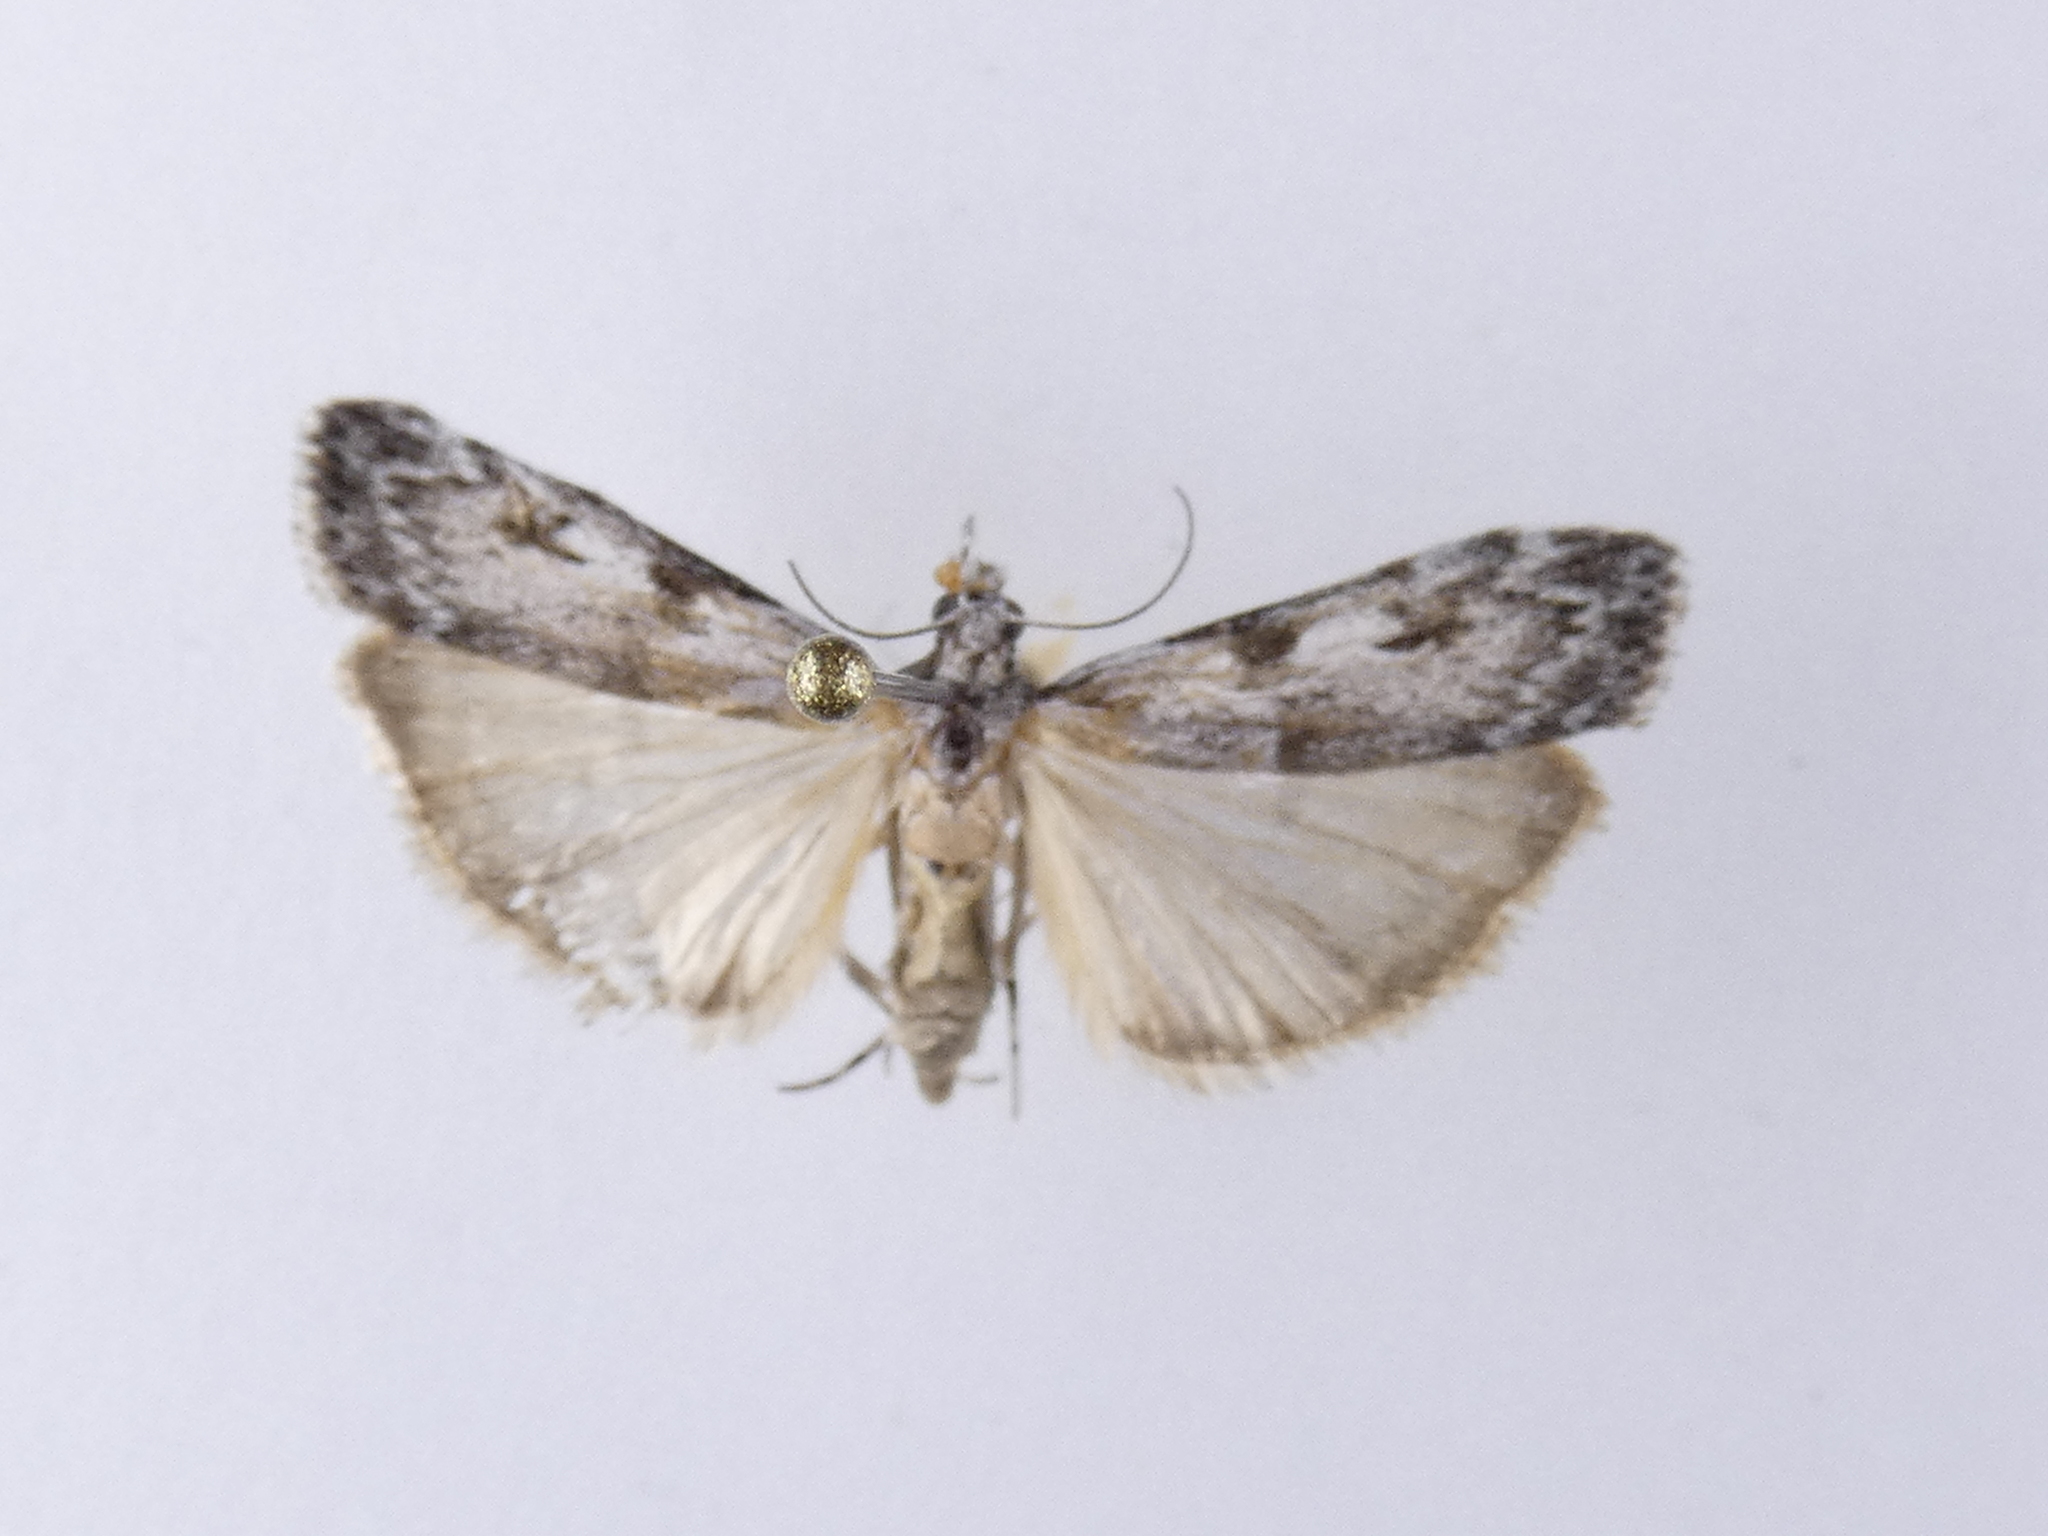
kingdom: Animalia
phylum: Arthropoda
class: Insecta
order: Lepidoptera
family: Crambidae
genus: Scoparia
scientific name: Scoparia halopis
